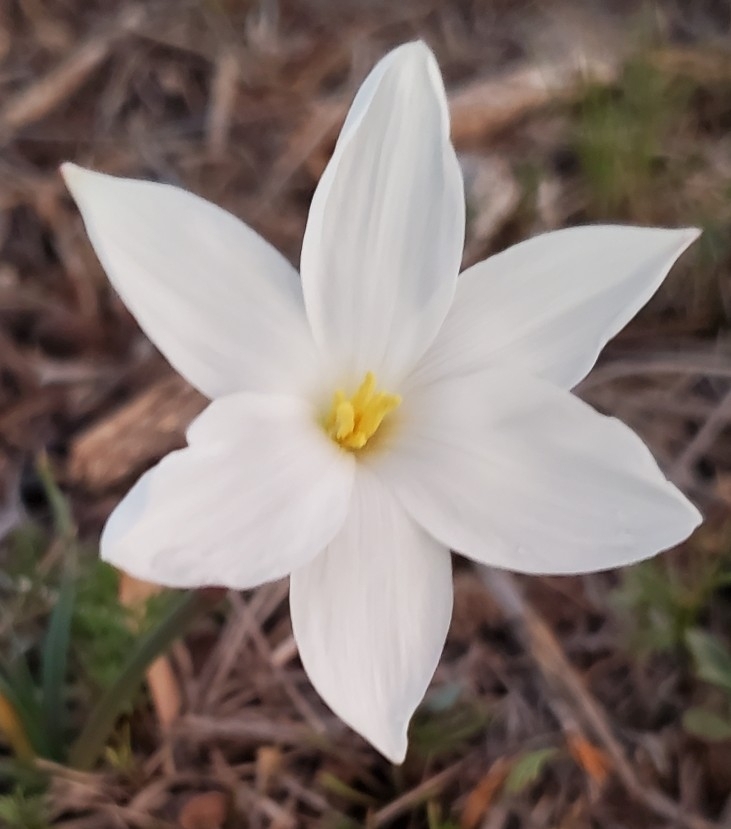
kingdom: Plantae
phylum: Tracheophyta
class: Liliopsida
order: Asparagales
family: Amaryllidaceae
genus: Zephyranthes
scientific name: Zephyranthes chlorosolen
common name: Evening rain-lily
